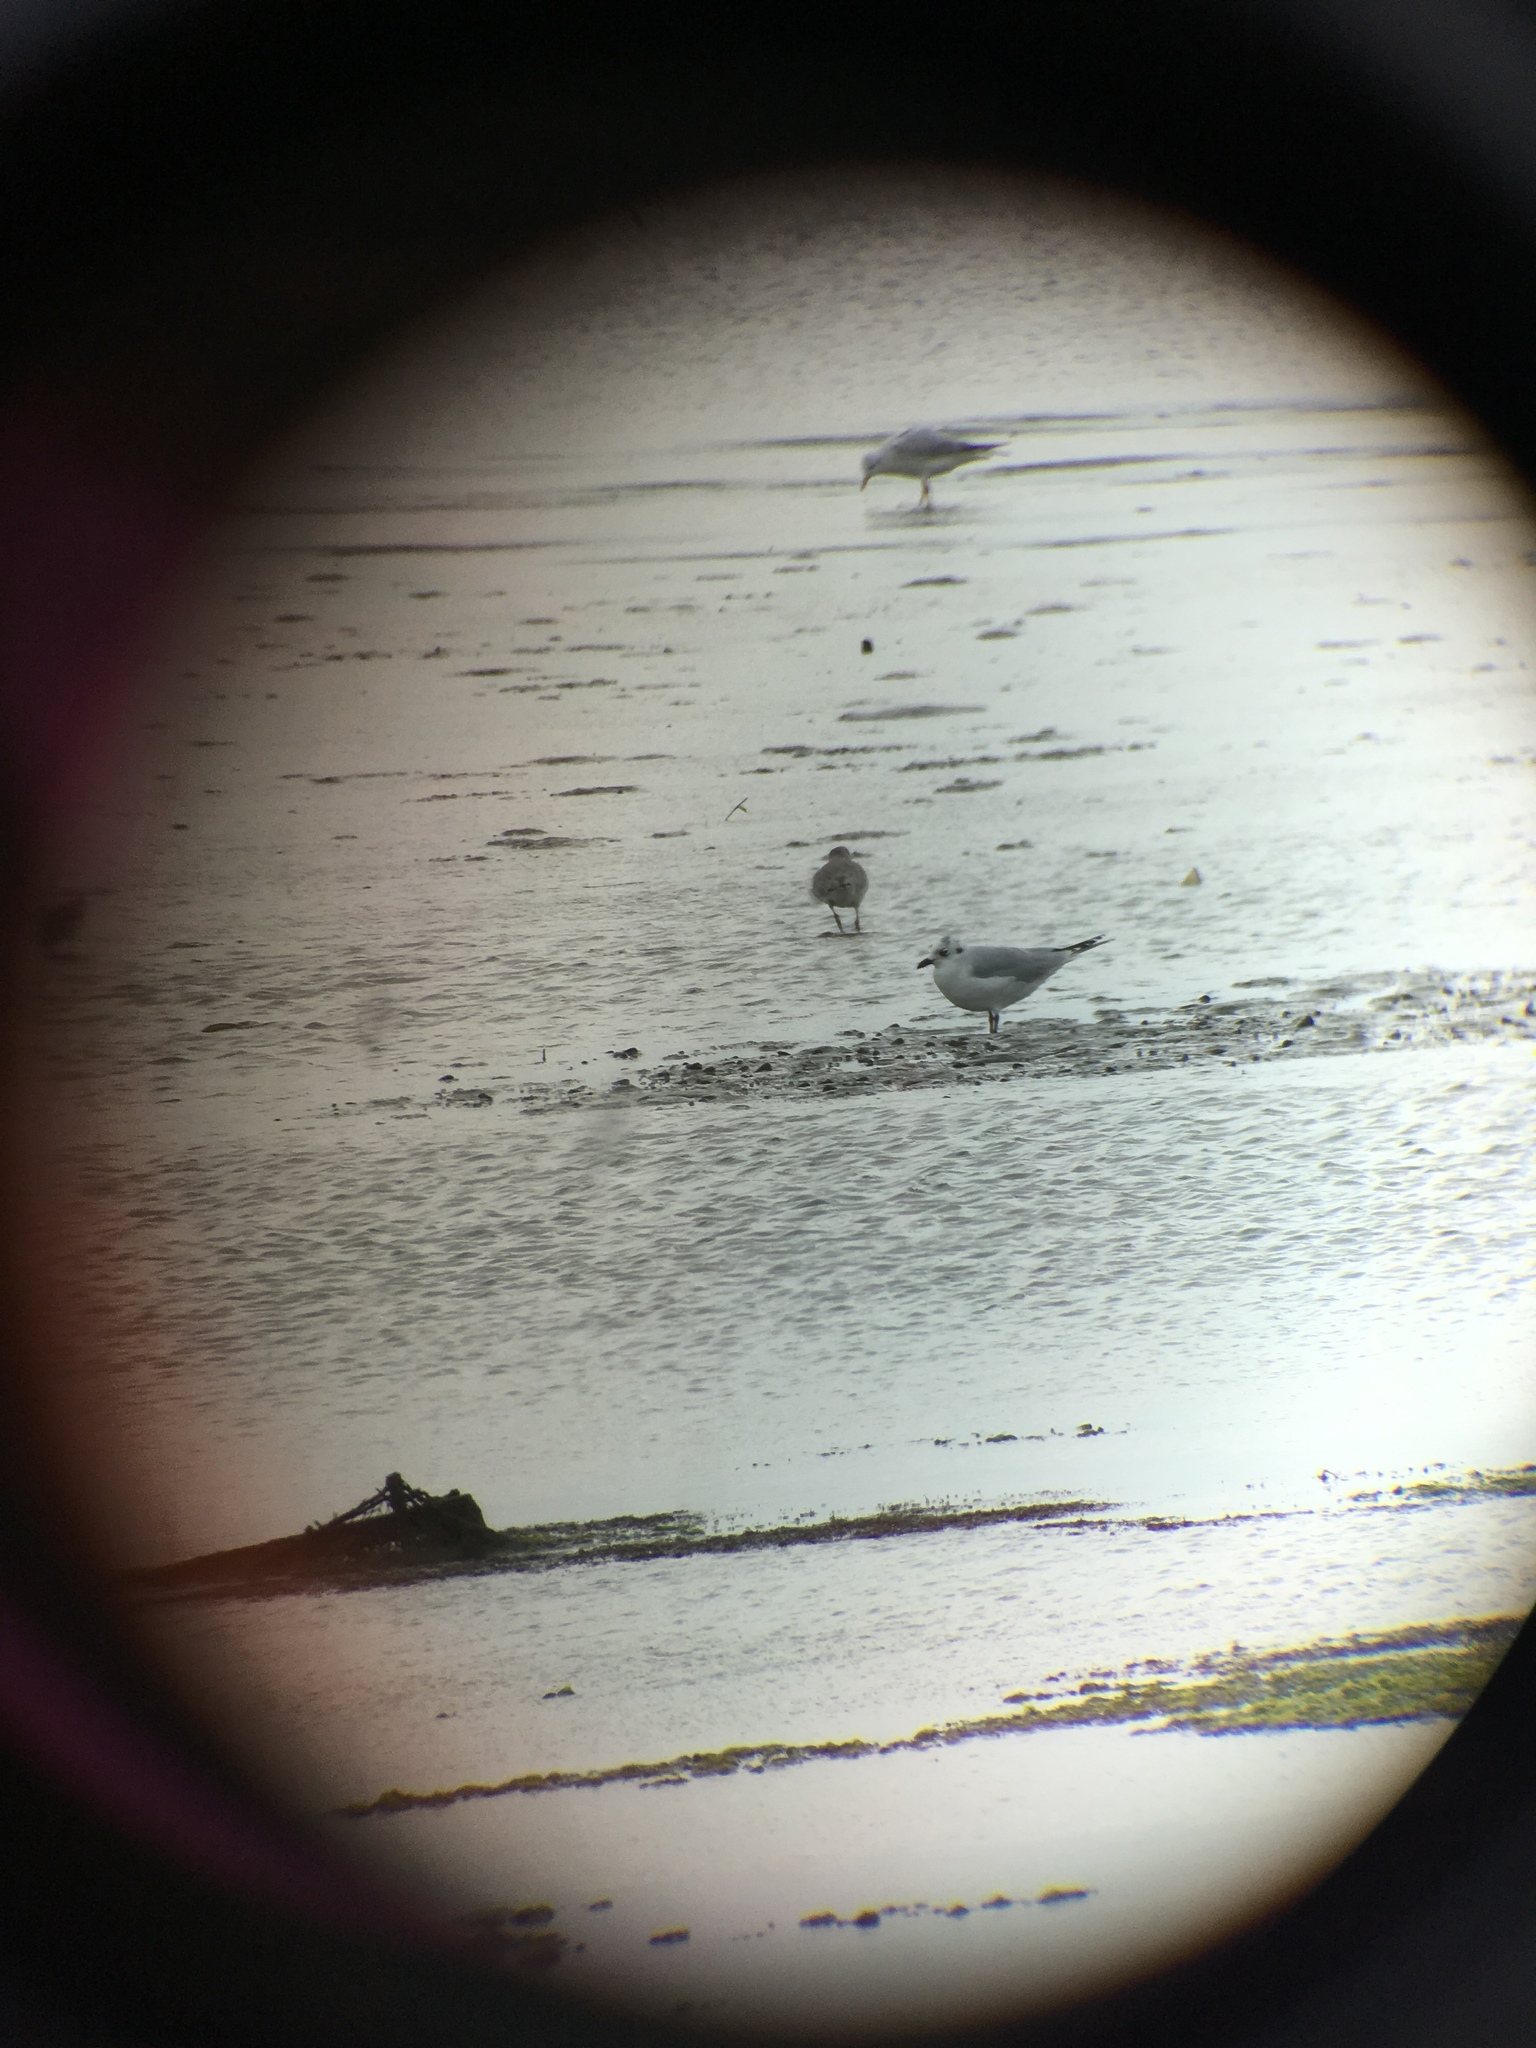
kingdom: Animalia
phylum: Chordata
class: Aves
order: Charadriiformes
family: Laridae
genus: Chroicocephalus
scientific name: Chroicocephalus saundersi
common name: Saunders's gull
